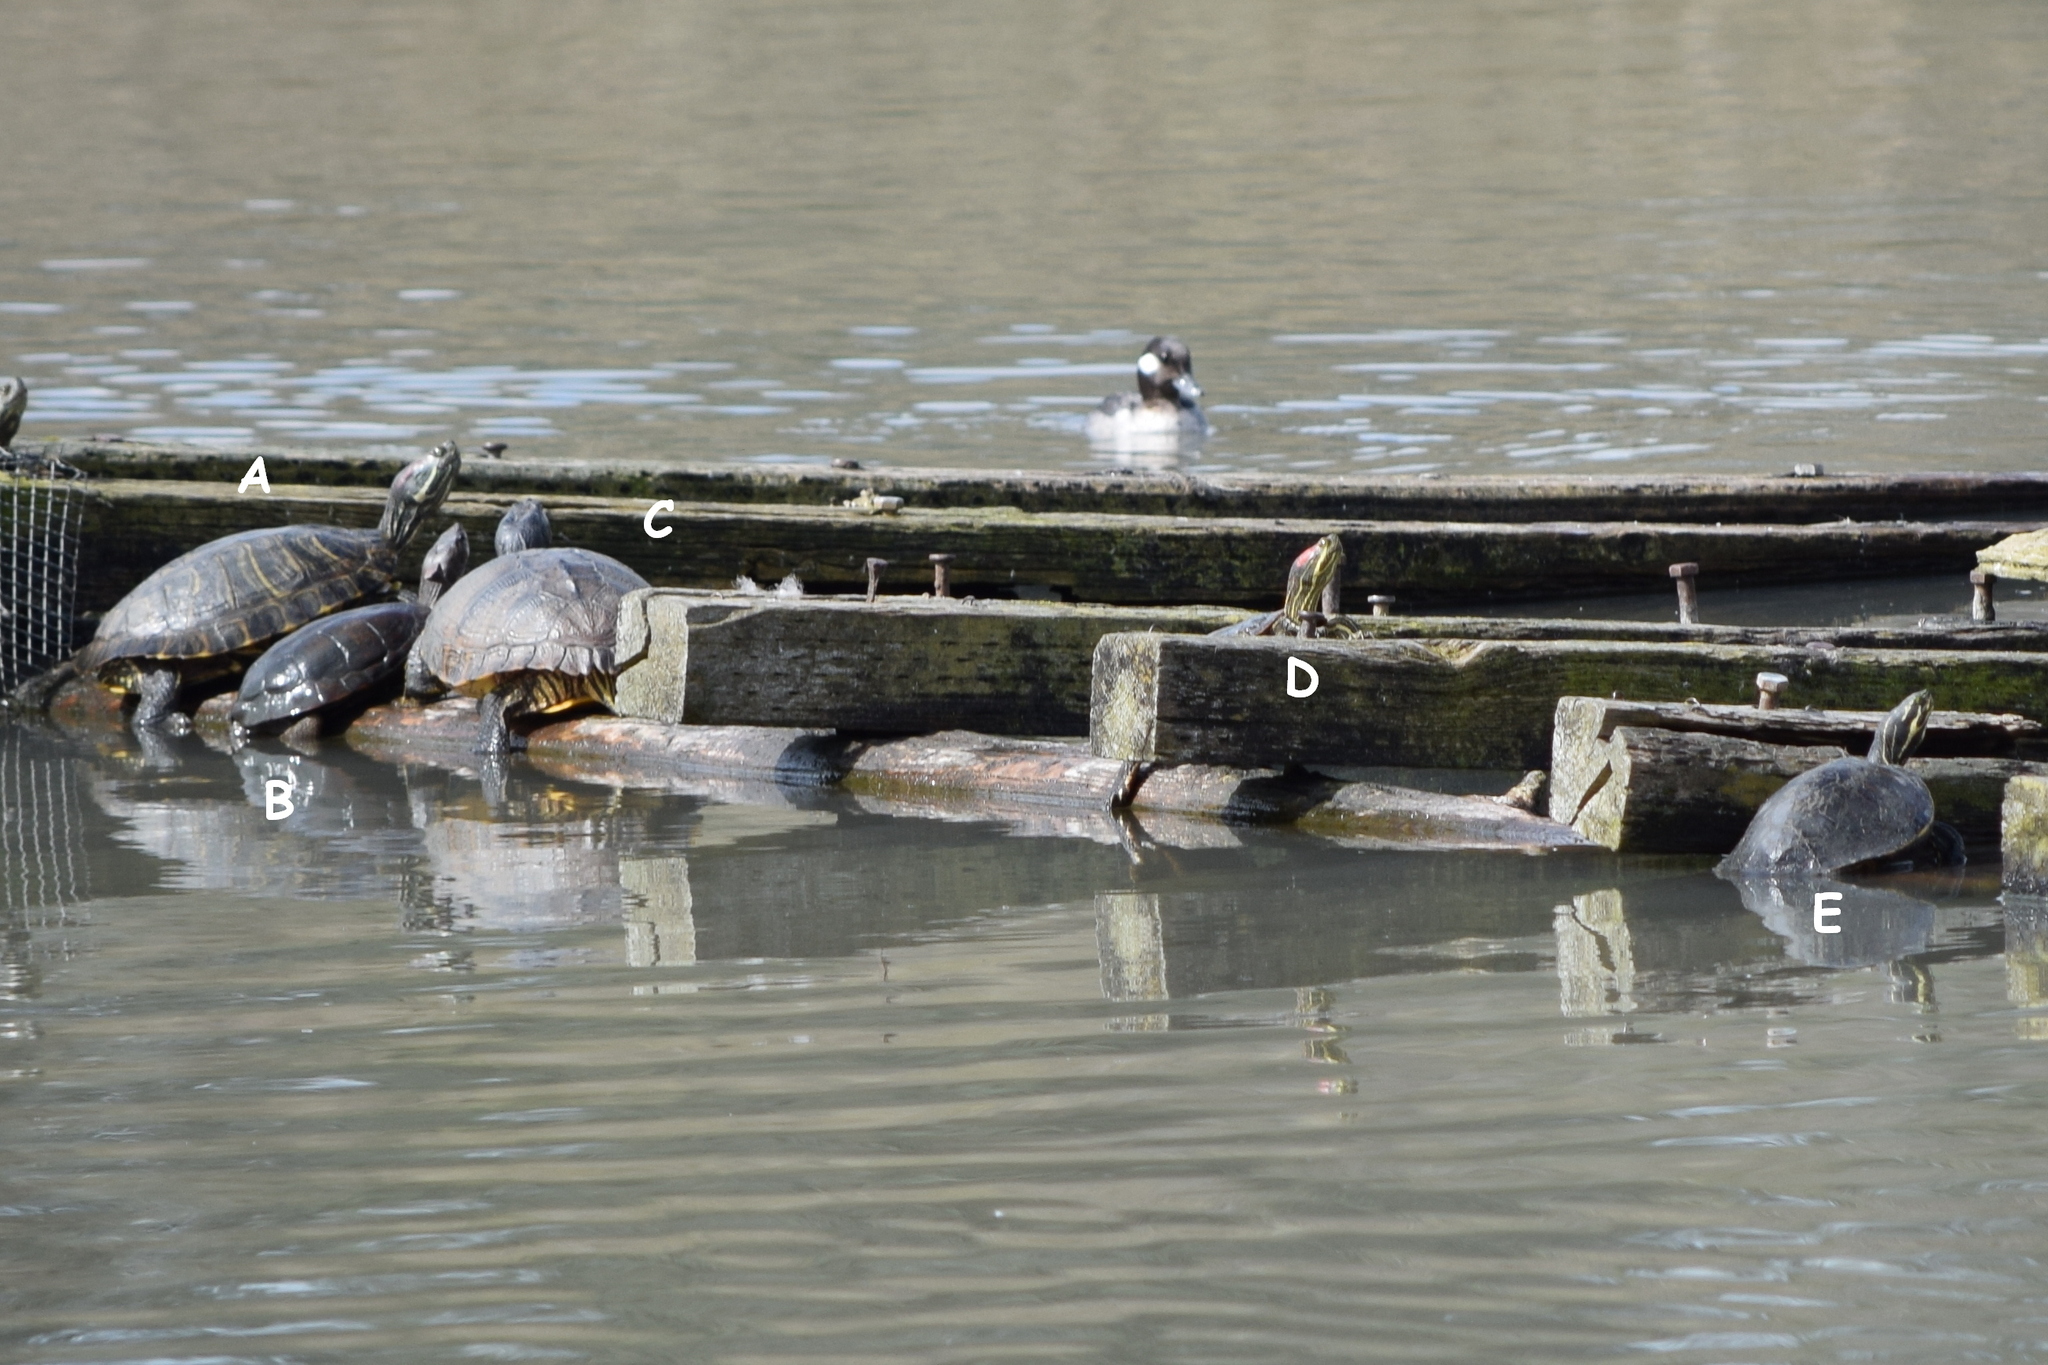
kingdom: Animalia
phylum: Chordata
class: Testudines
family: Emydidae
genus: Trachemys
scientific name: Trachemys scripta
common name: Slider
